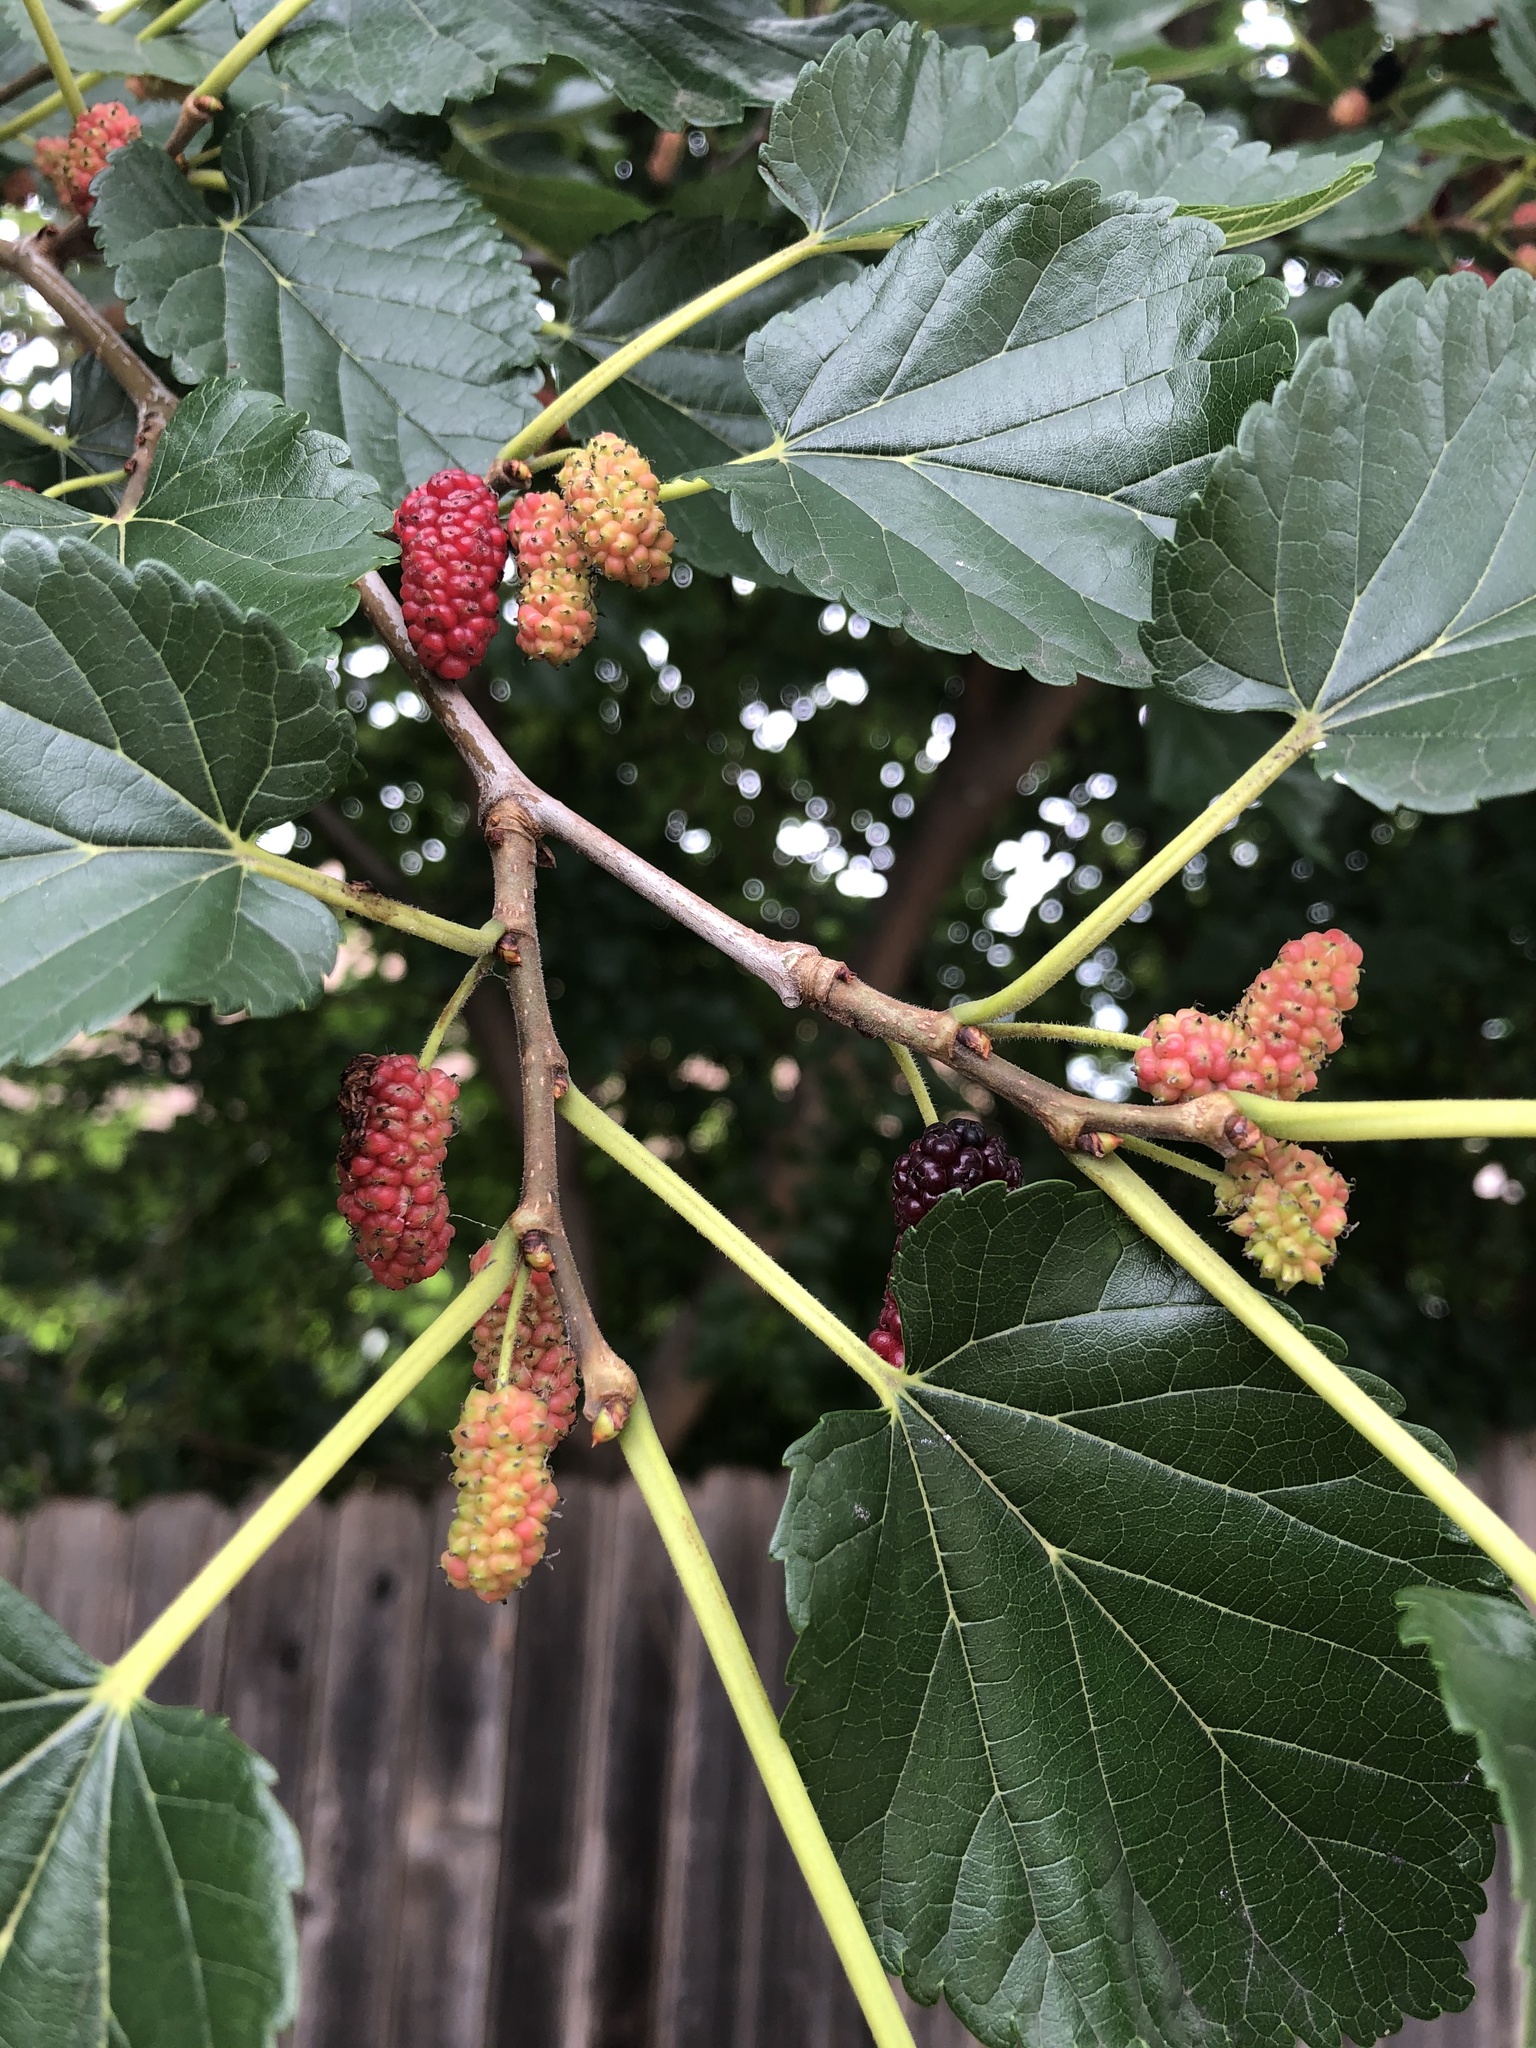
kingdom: Plantae
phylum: Tracheophyta
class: Magnoliopsida
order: Rosales
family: Moraceae
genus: Morus
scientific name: Morus alba
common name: White mulberry
